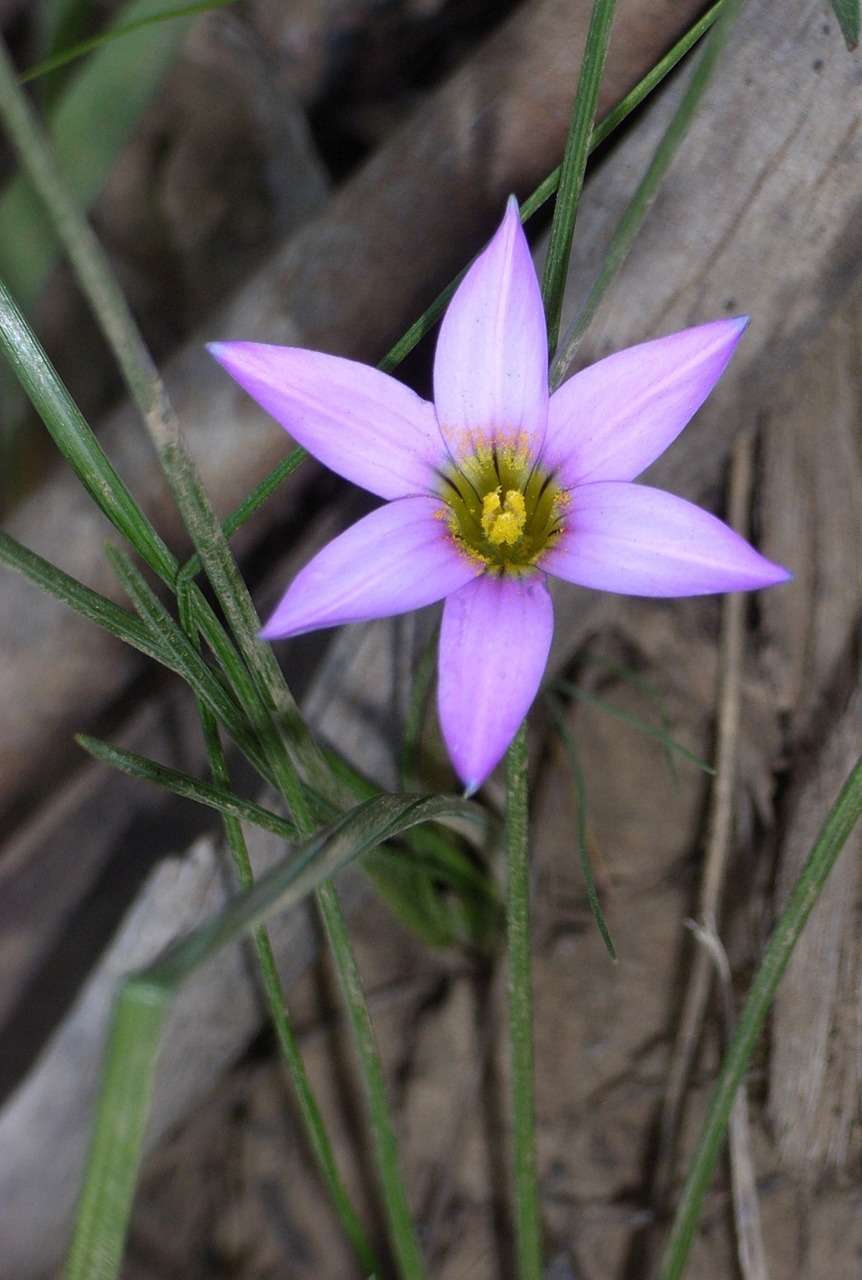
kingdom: Plantae
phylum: Tracheophyta
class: Liliopsida
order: Asparagales
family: Iridaceae
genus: Romulea
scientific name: Romulea rosea
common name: Oniongrass
